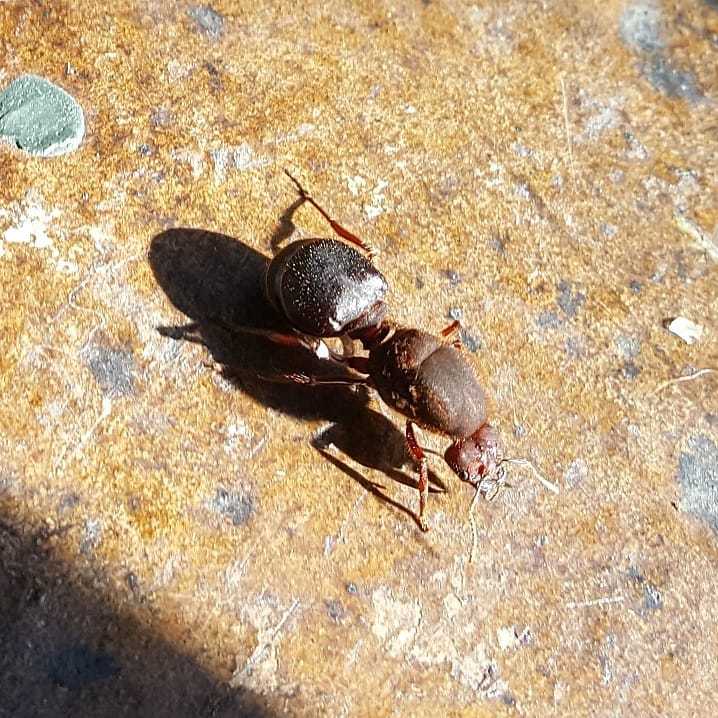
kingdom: Animalia
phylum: Arthropoda
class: Insecta
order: Hymenoptera
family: Formicidae
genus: Atta
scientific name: Atta mexicana
